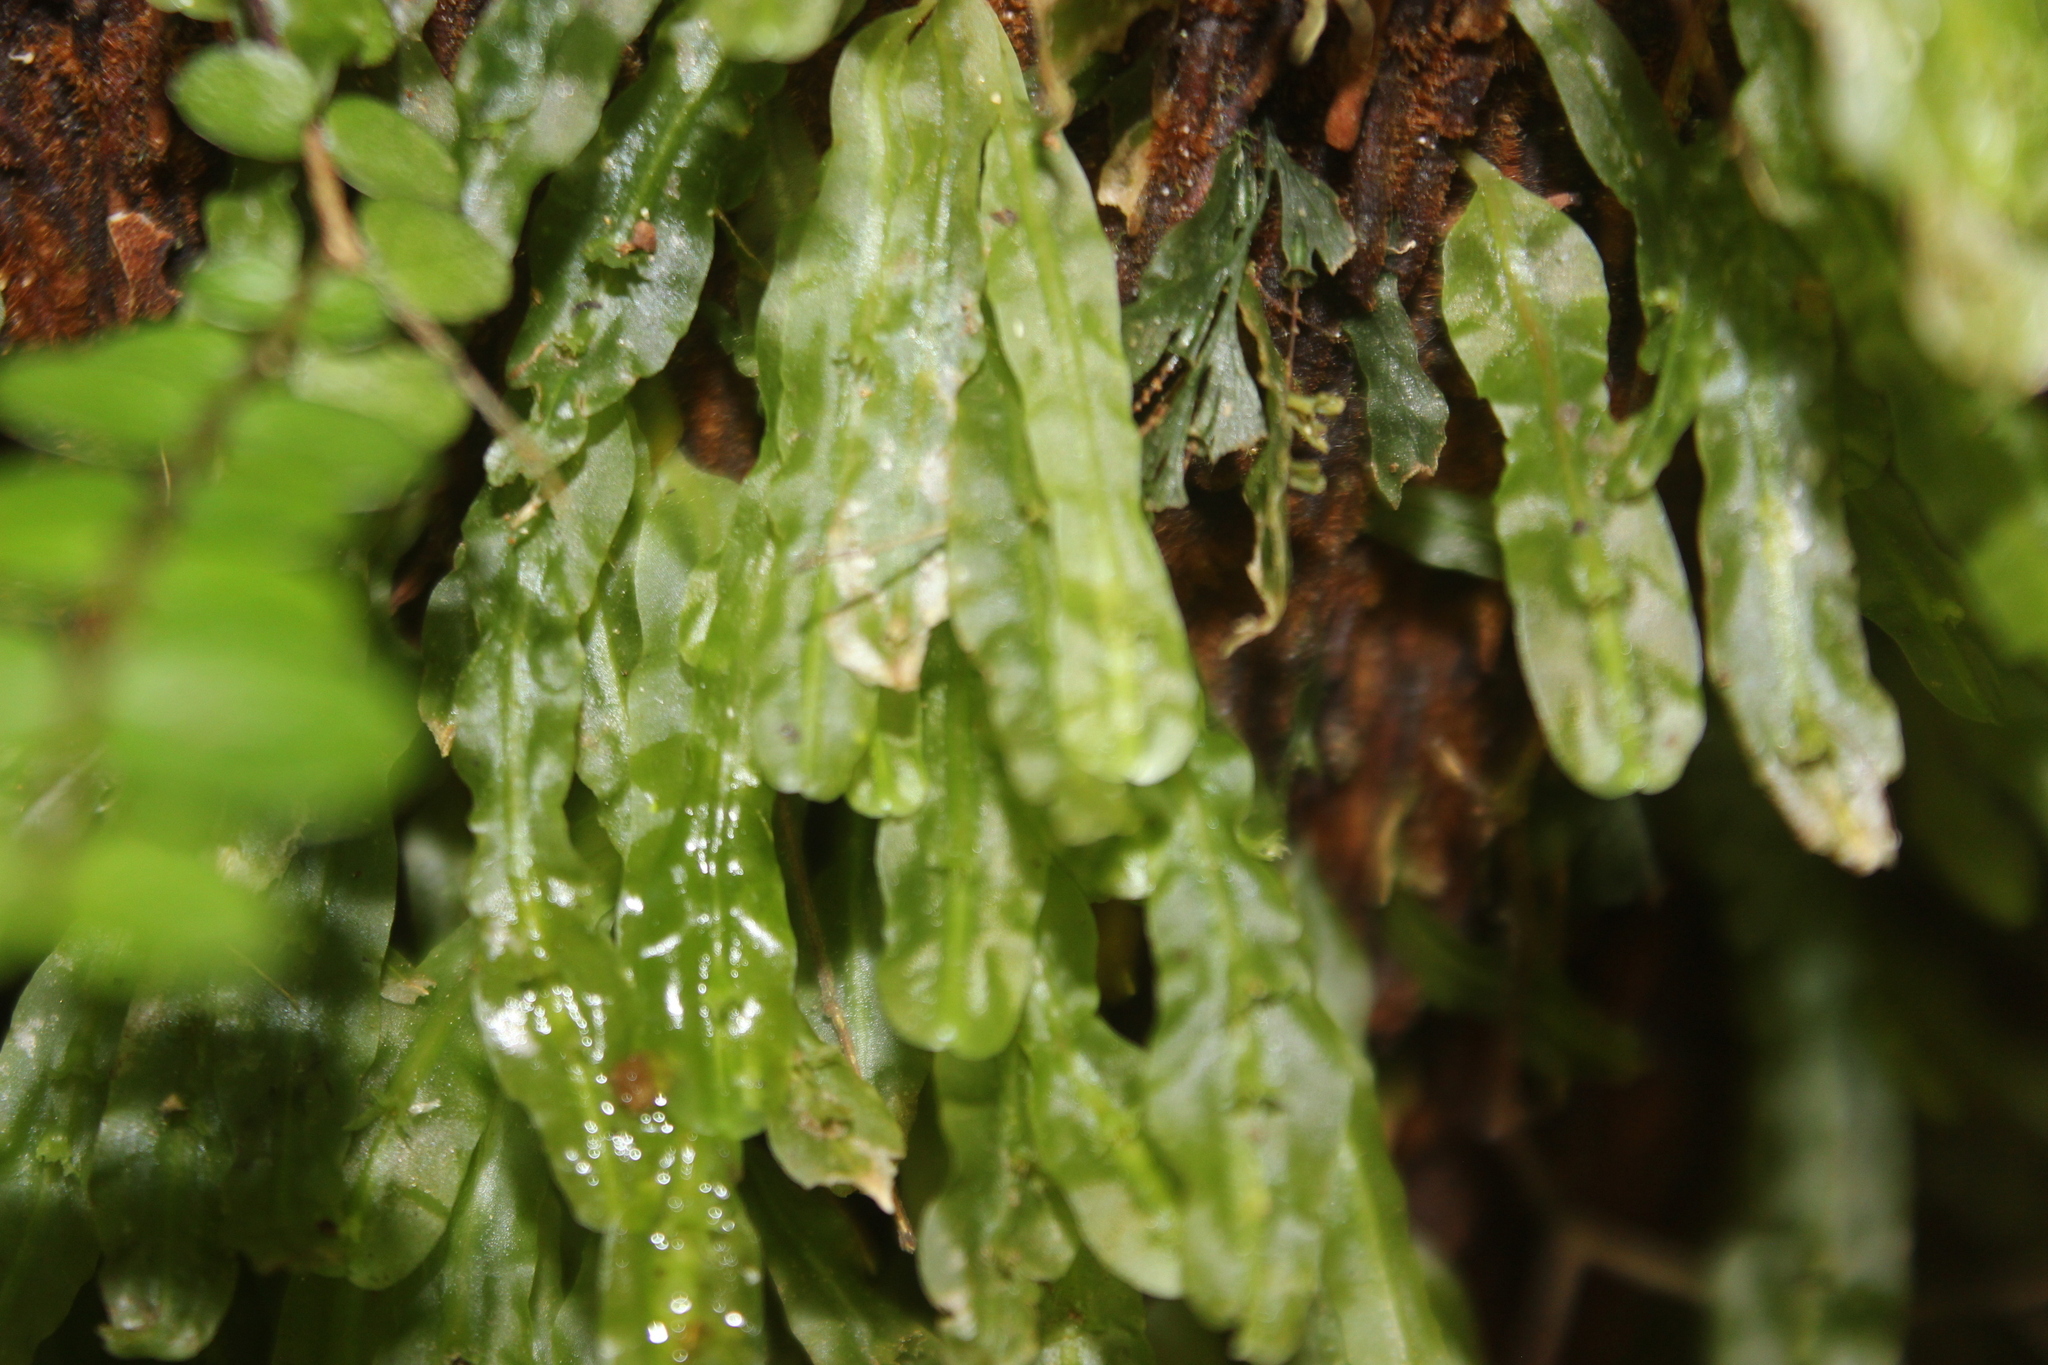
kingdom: Plantae
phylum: Marchantiophyta
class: Jungermanniopsida
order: Pallaviciniales
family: Pallaviciniaceae
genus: Symphyogyna
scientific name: Symphyogyna subsimplex
